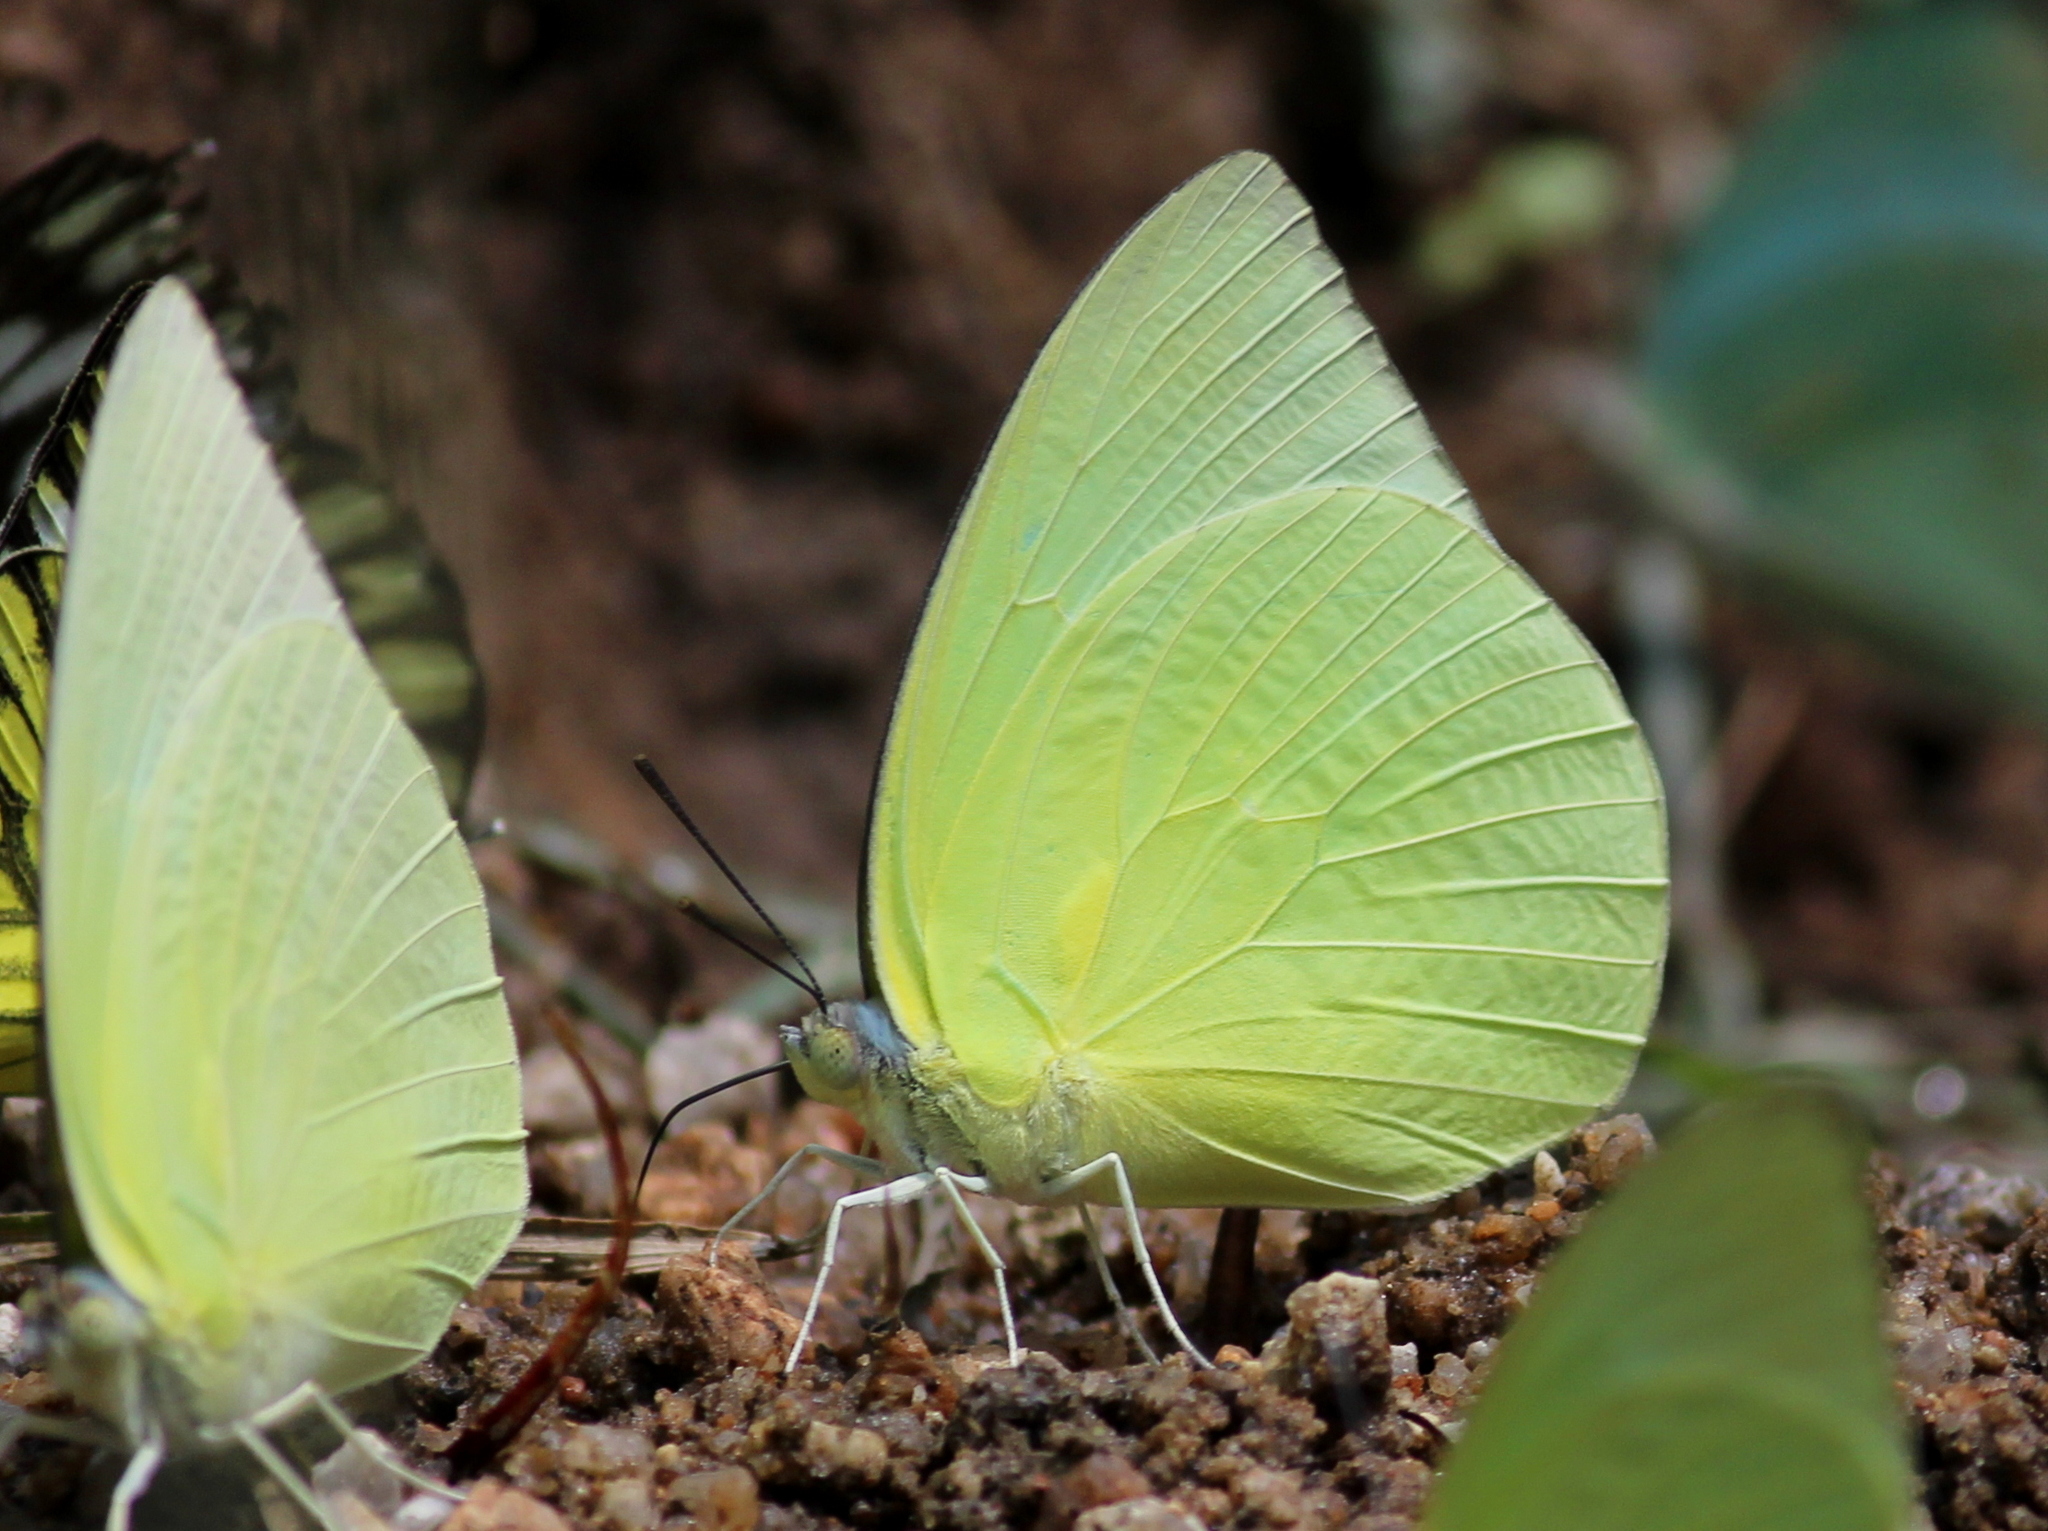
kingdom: Animalia
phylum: Arthropoda
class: Insecta
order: Lepidoptera
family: Pieridae
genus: Catopsilia
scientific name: Catopsilia pomona
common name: Common emigrant
